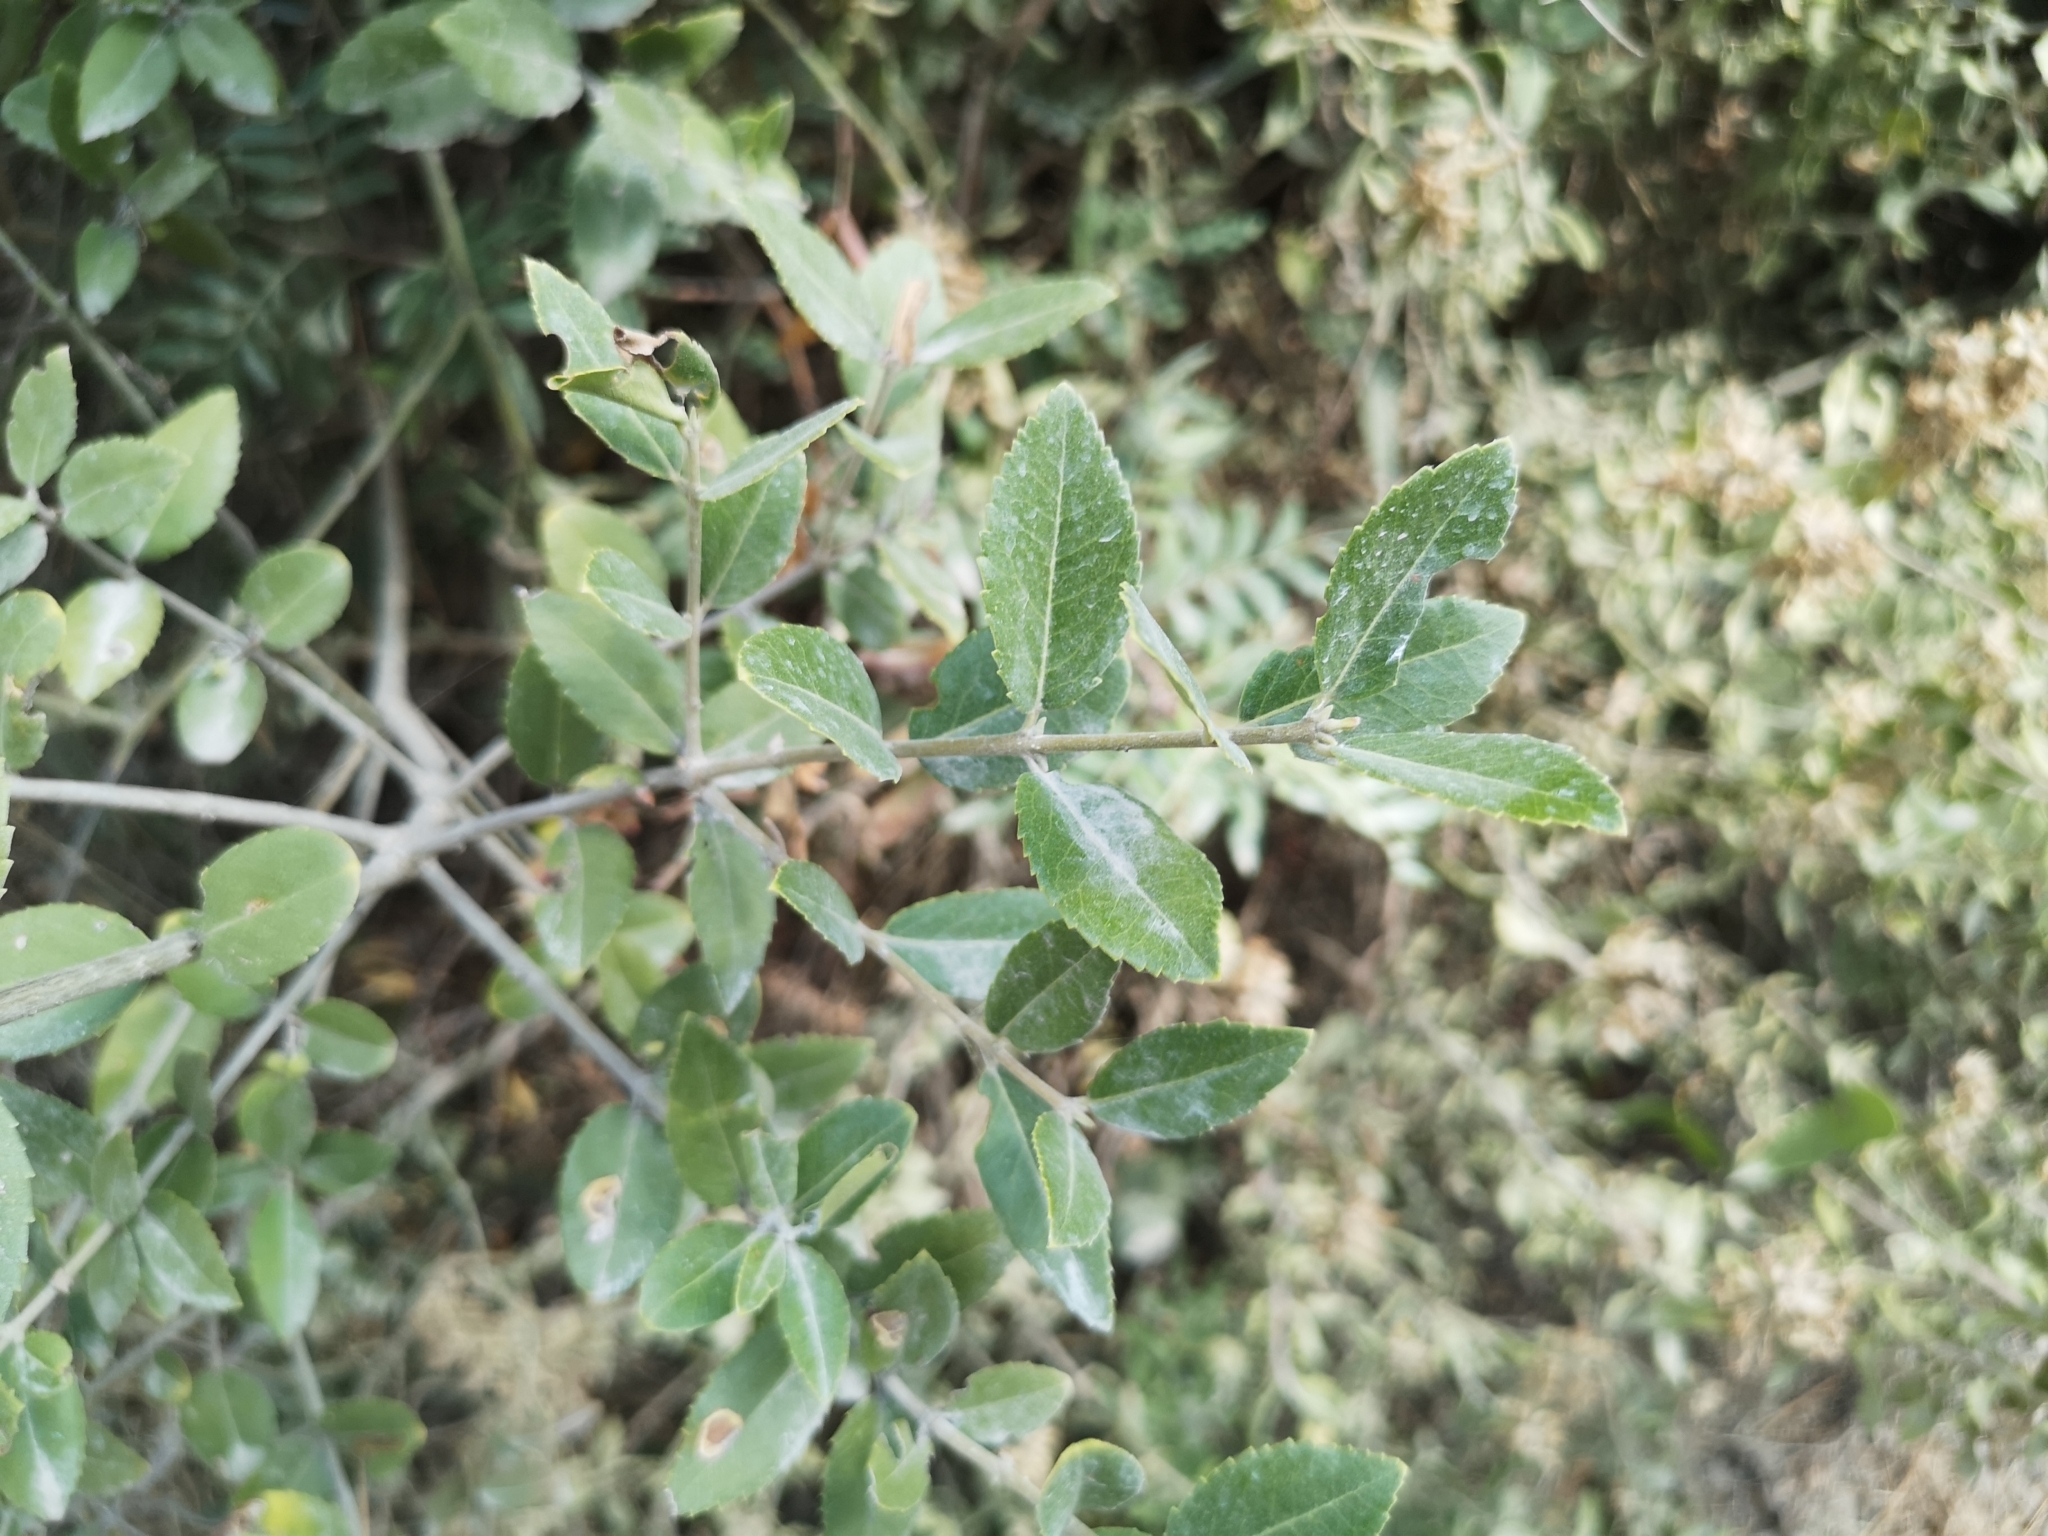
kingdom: Plantae
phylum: Tracheophyta
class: Magnoliopsida
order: Lamiales
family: Oleaceae
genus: Phillyrea
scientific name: Phillyrea latifolia
